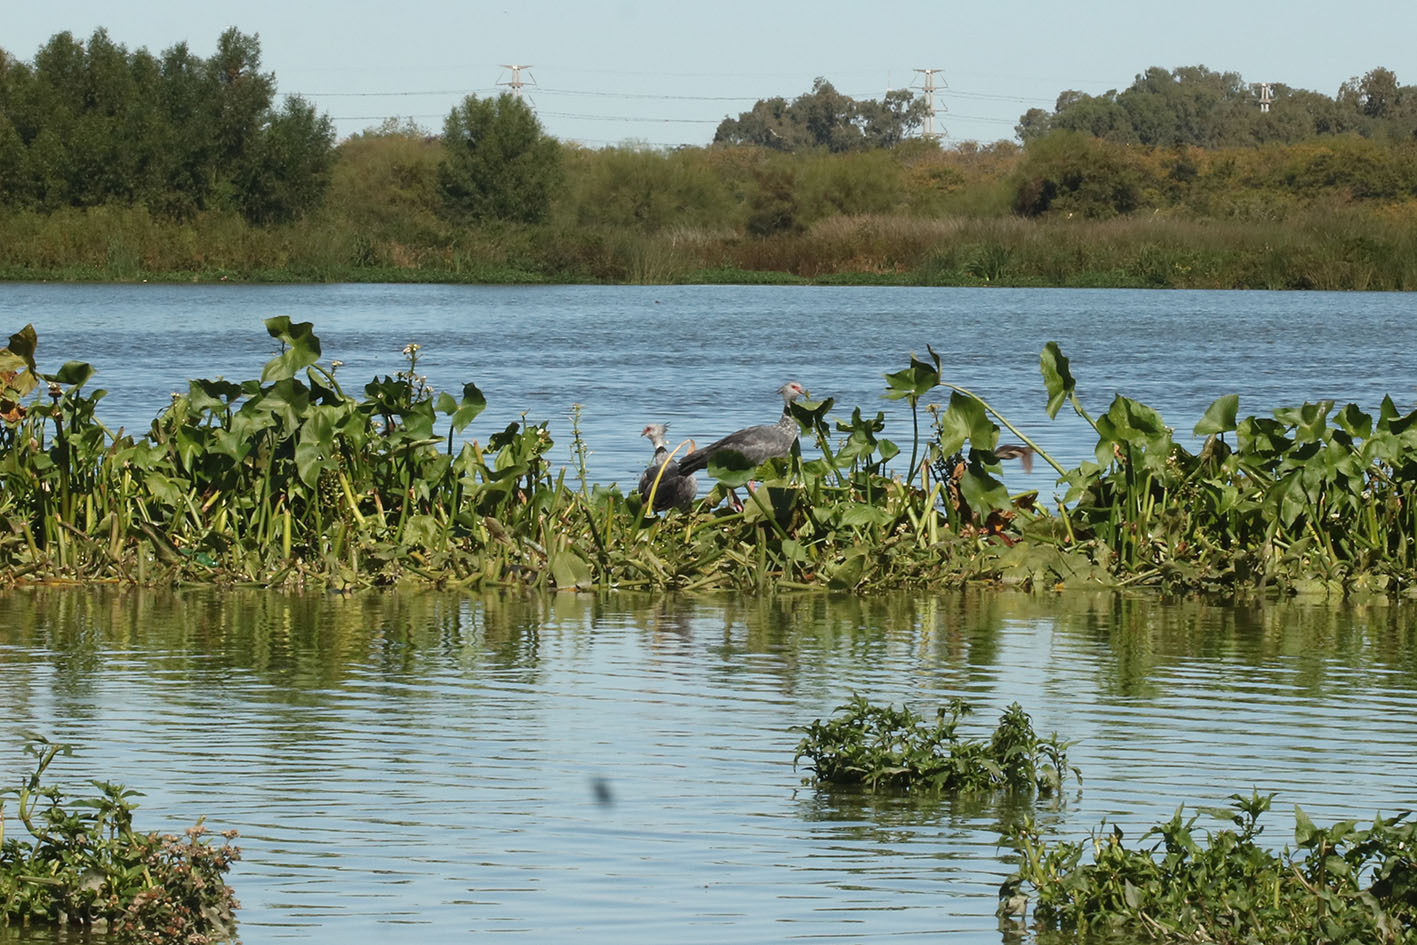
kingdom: Animalia
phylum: Chordata
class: Aves
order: Anseriformes
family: Anhimidae
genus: Chauna
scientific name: Chauna torquata
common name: Southern screamer
